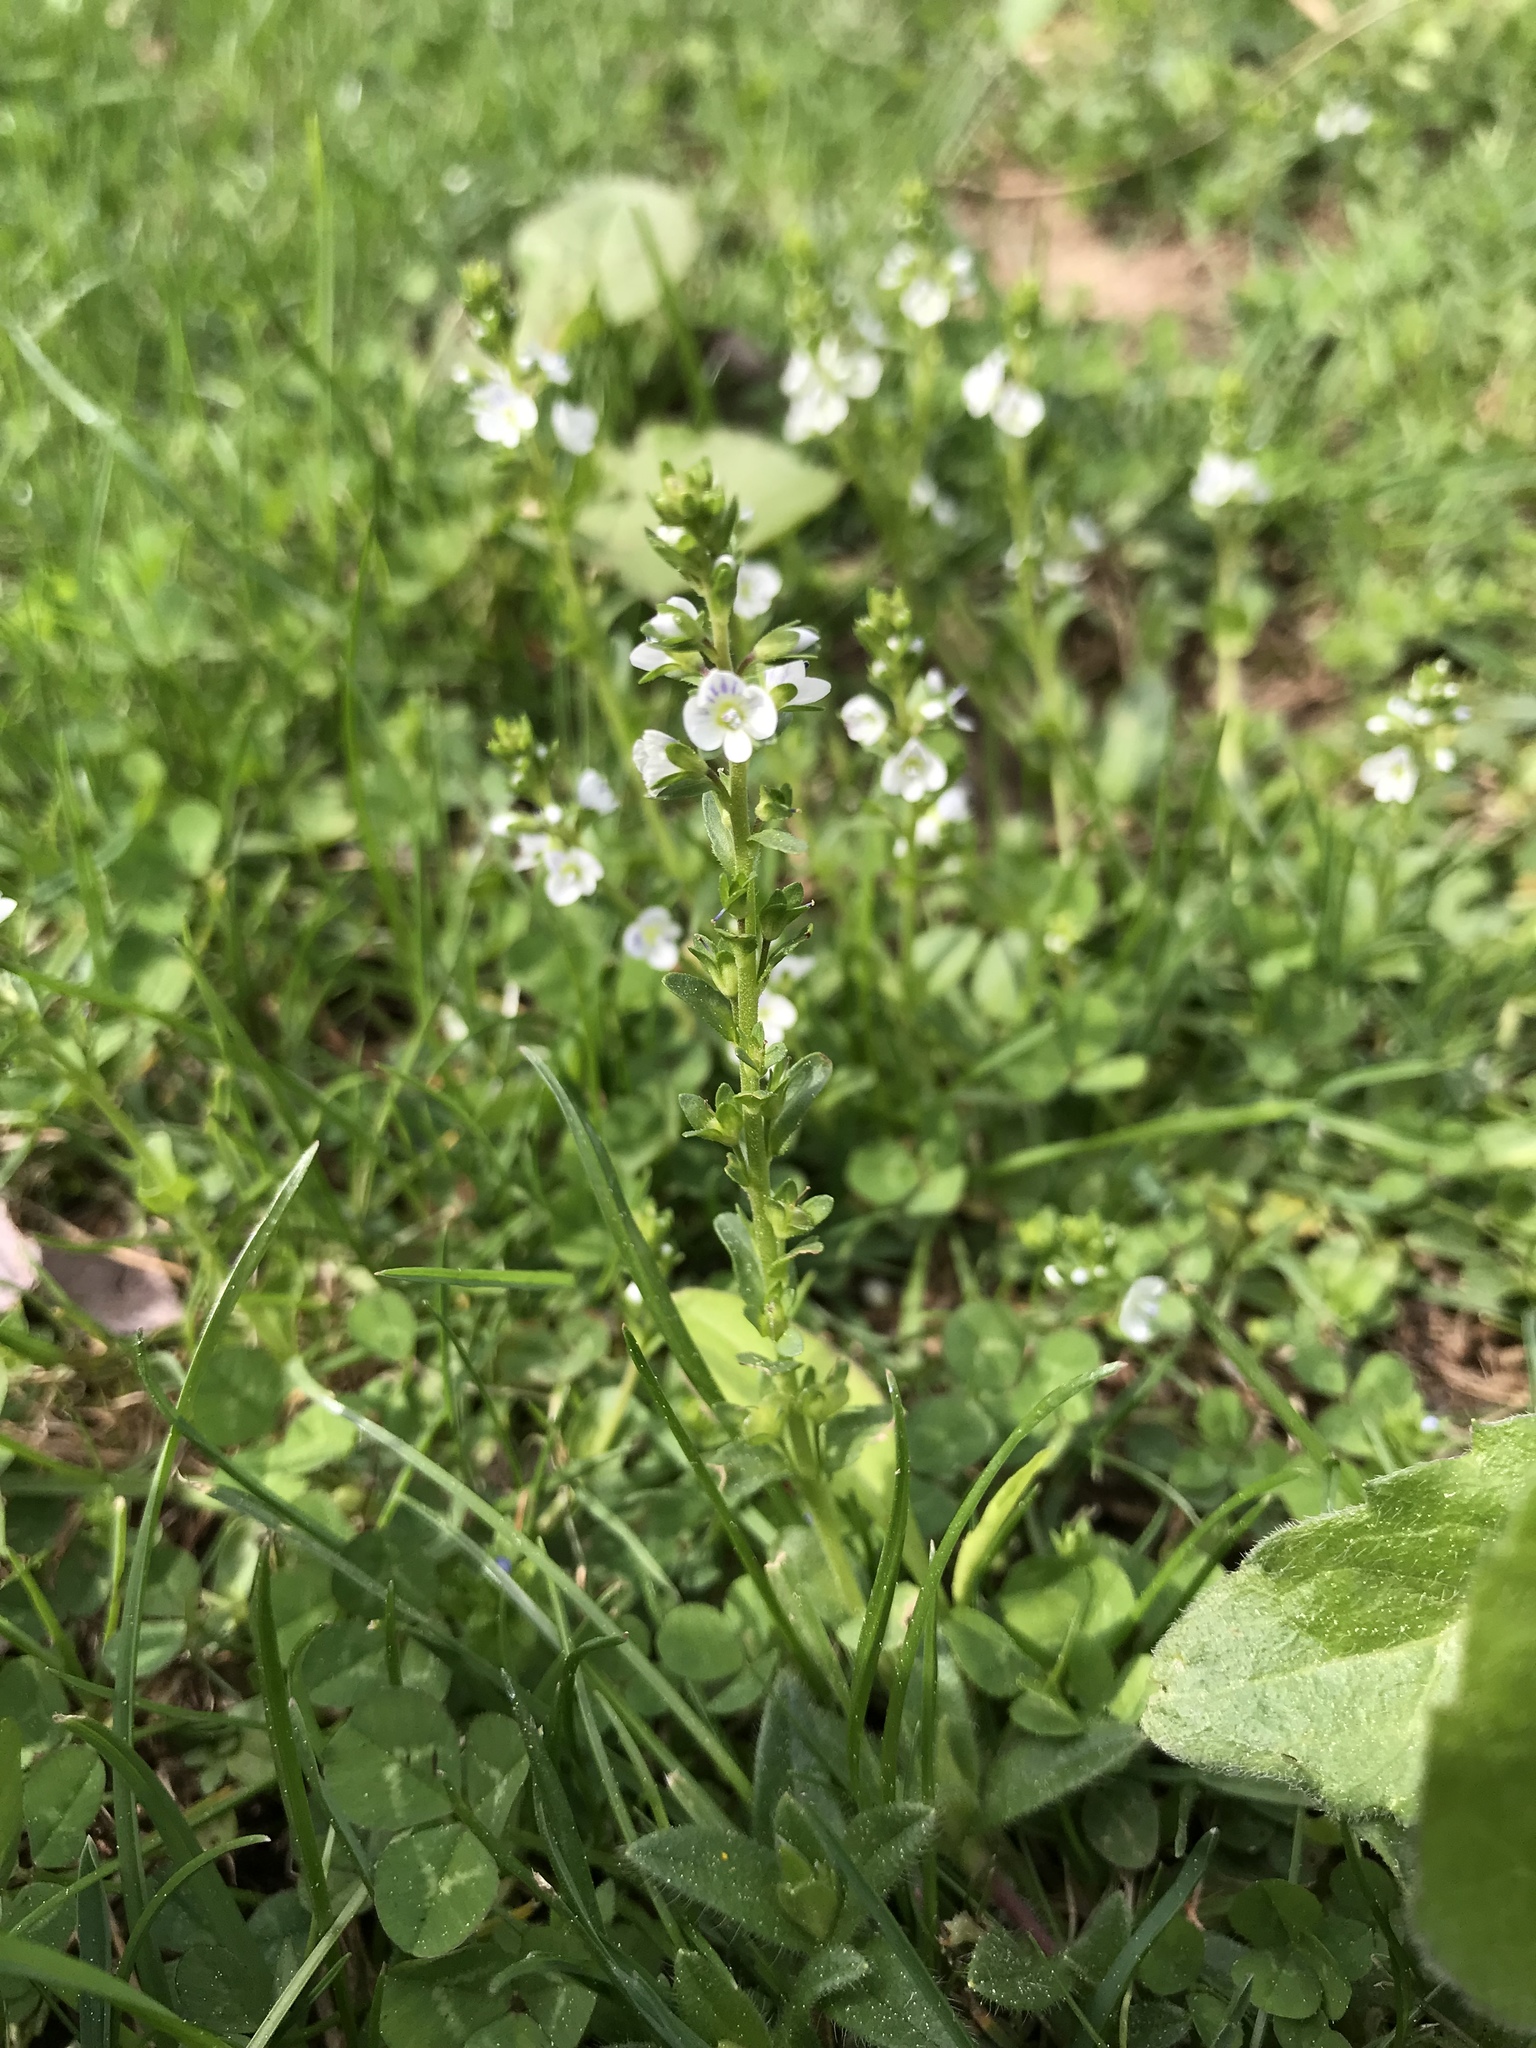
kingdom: Plantae
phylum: Tracheophyta
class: Magnoliopsida
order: Lamiales
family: Plantaginaceae
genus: Veronica
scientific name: Veronica serpyllifolia
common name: Thyme-leaved speedwell
